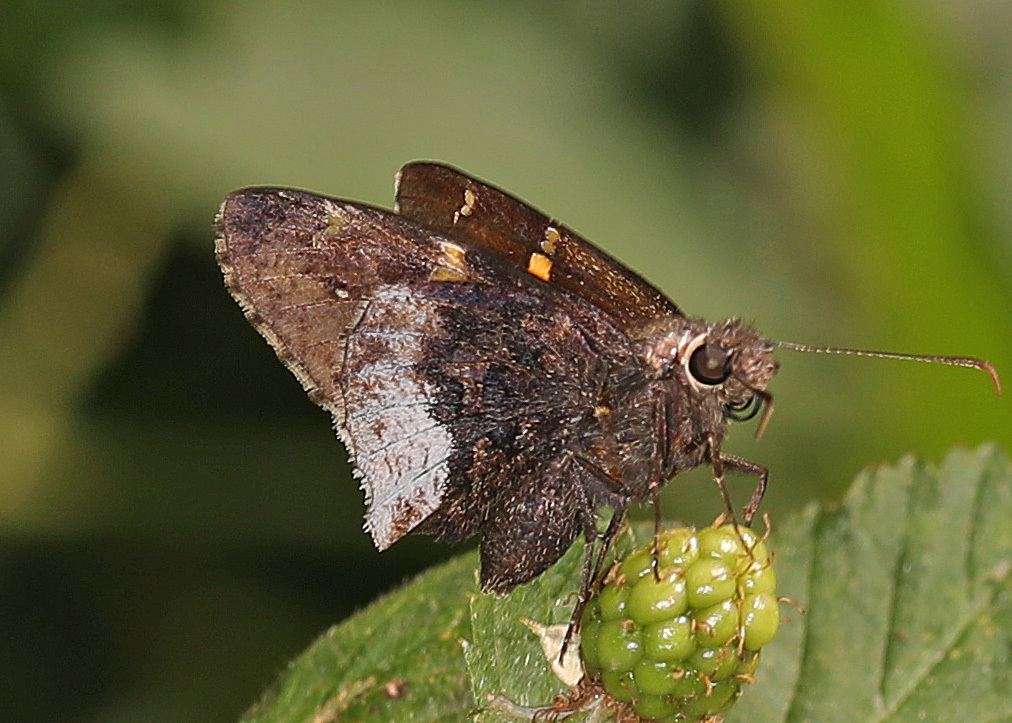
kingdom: Animalia
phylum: Arthropoda
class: Insecta
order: Lepidoptera
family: Hesperiidae
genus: Thorybes
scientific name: Thorybes lyciades
